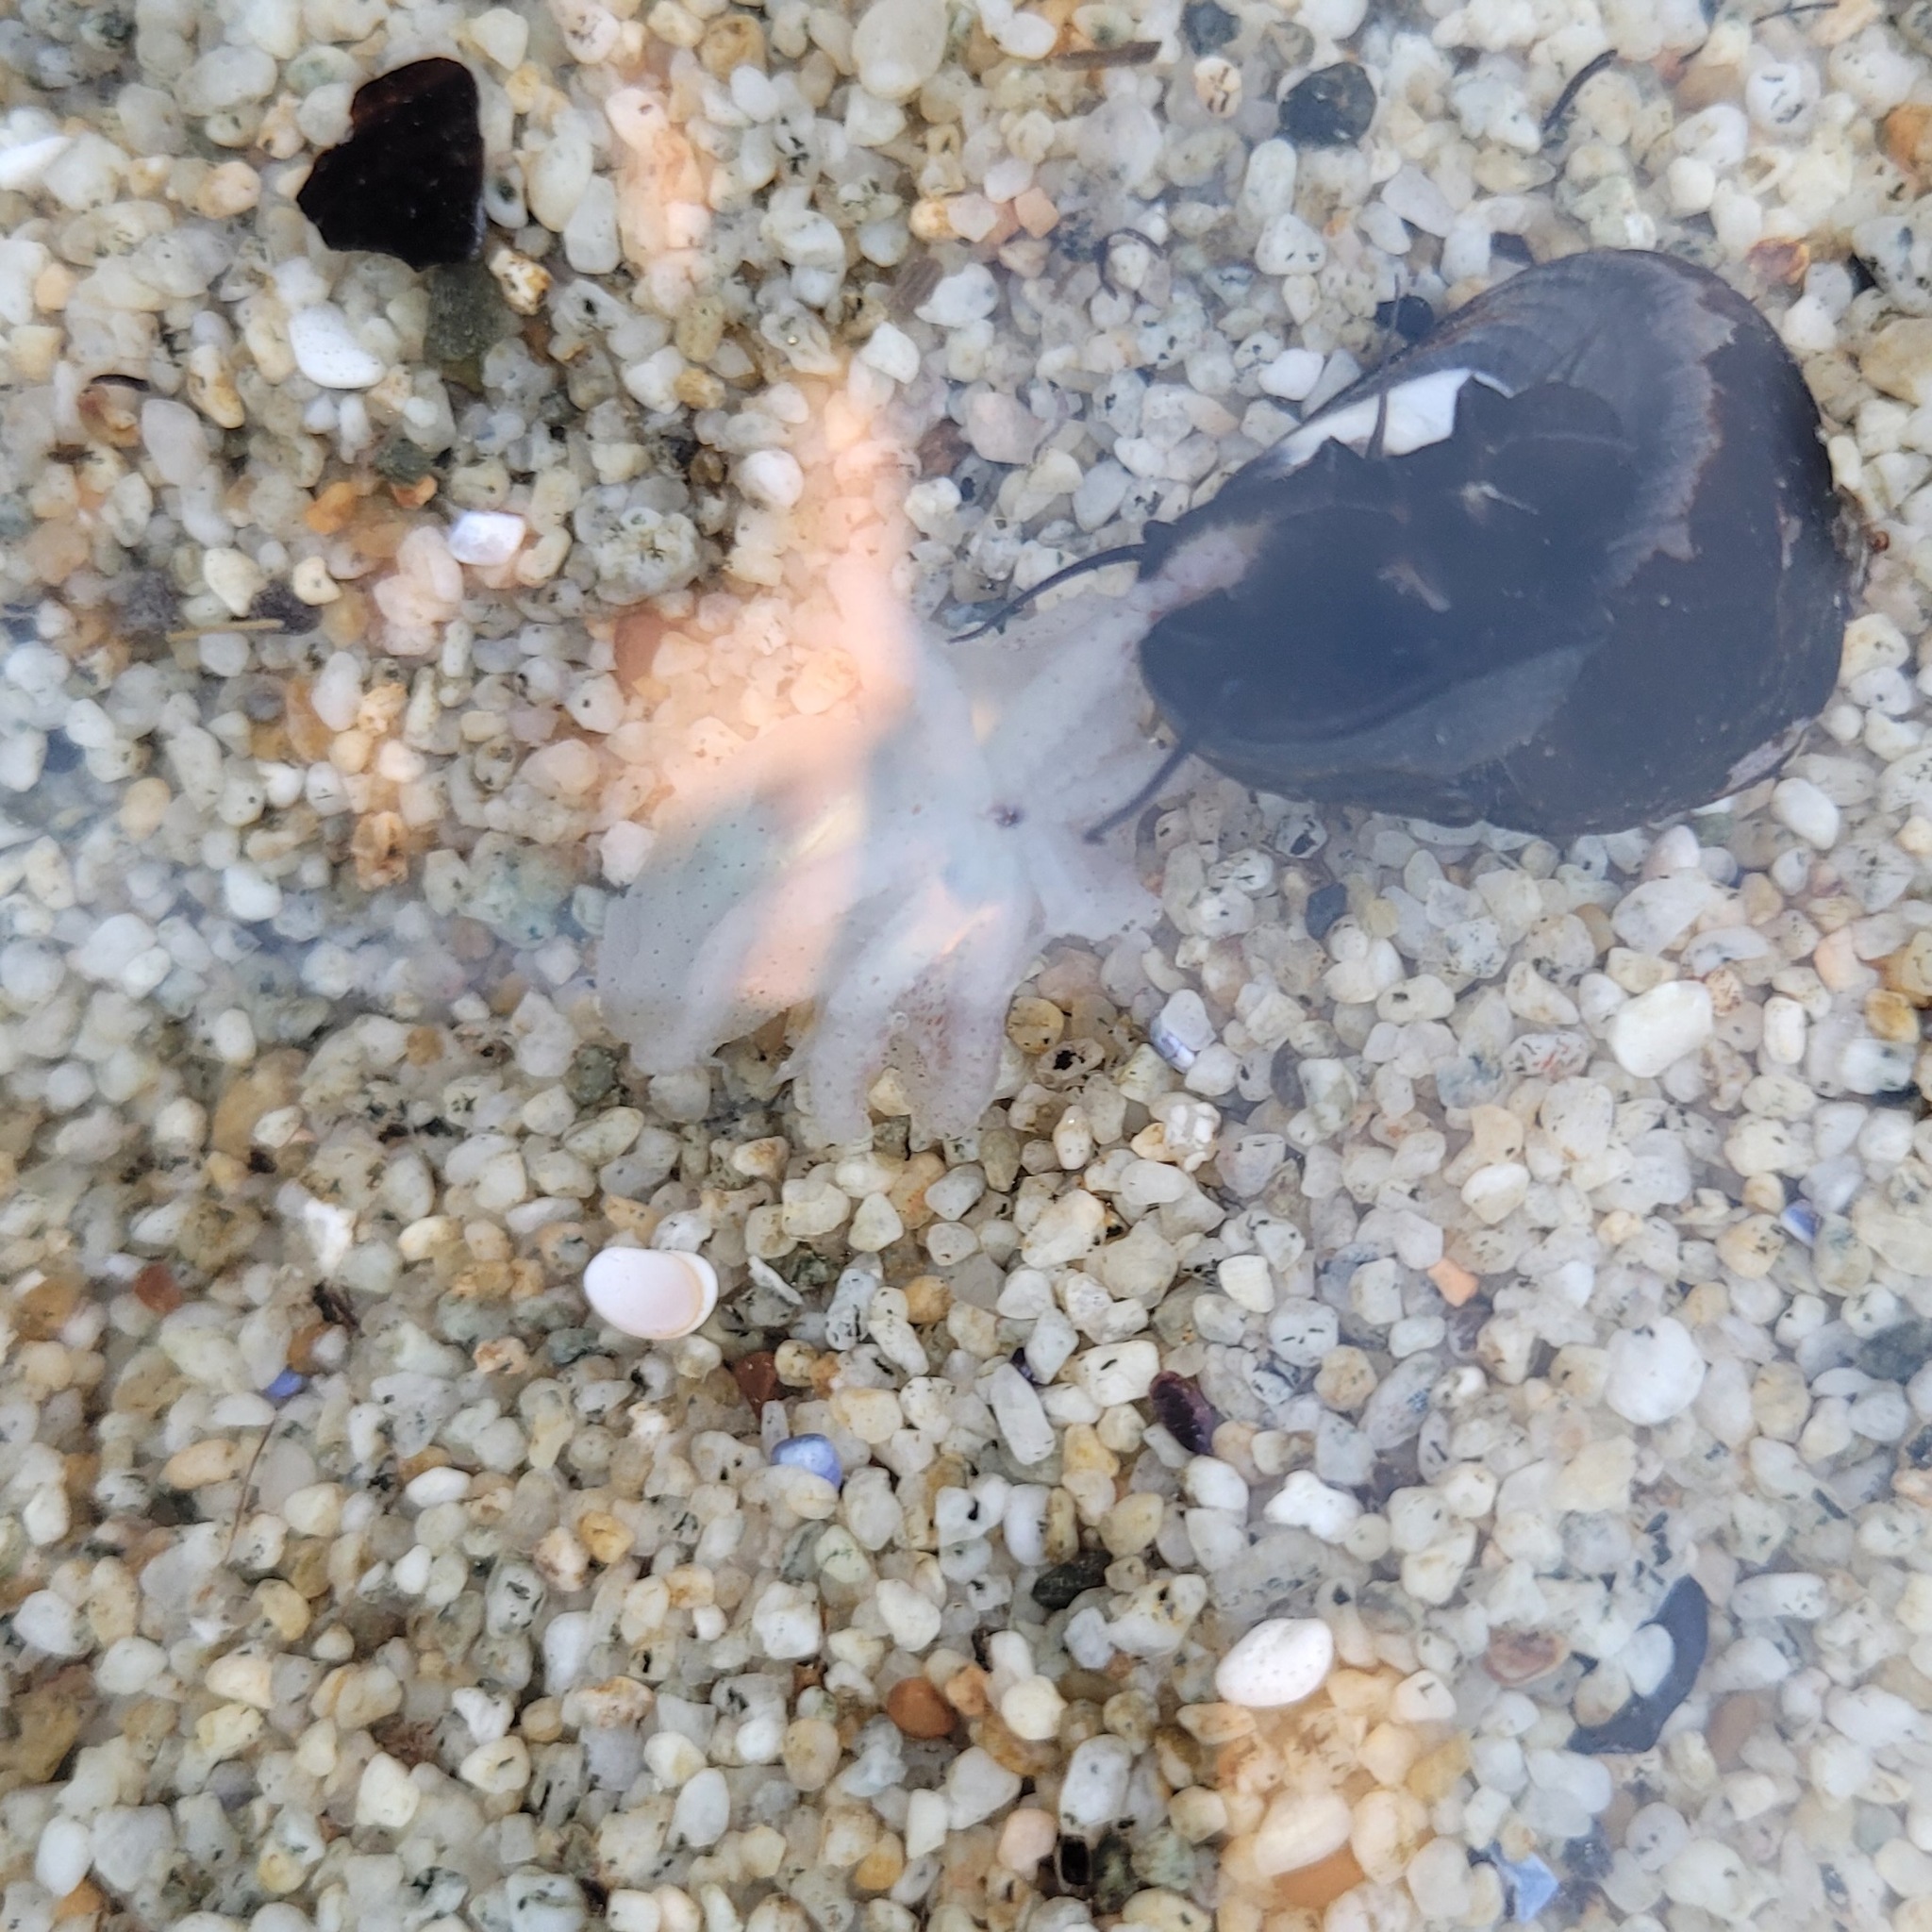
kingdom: Animalia
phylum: Mollusca
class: Gastropoda
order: Trochida
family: Tegulidae
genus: Tegula
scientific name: Tegula funebralis
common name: Black tegula
